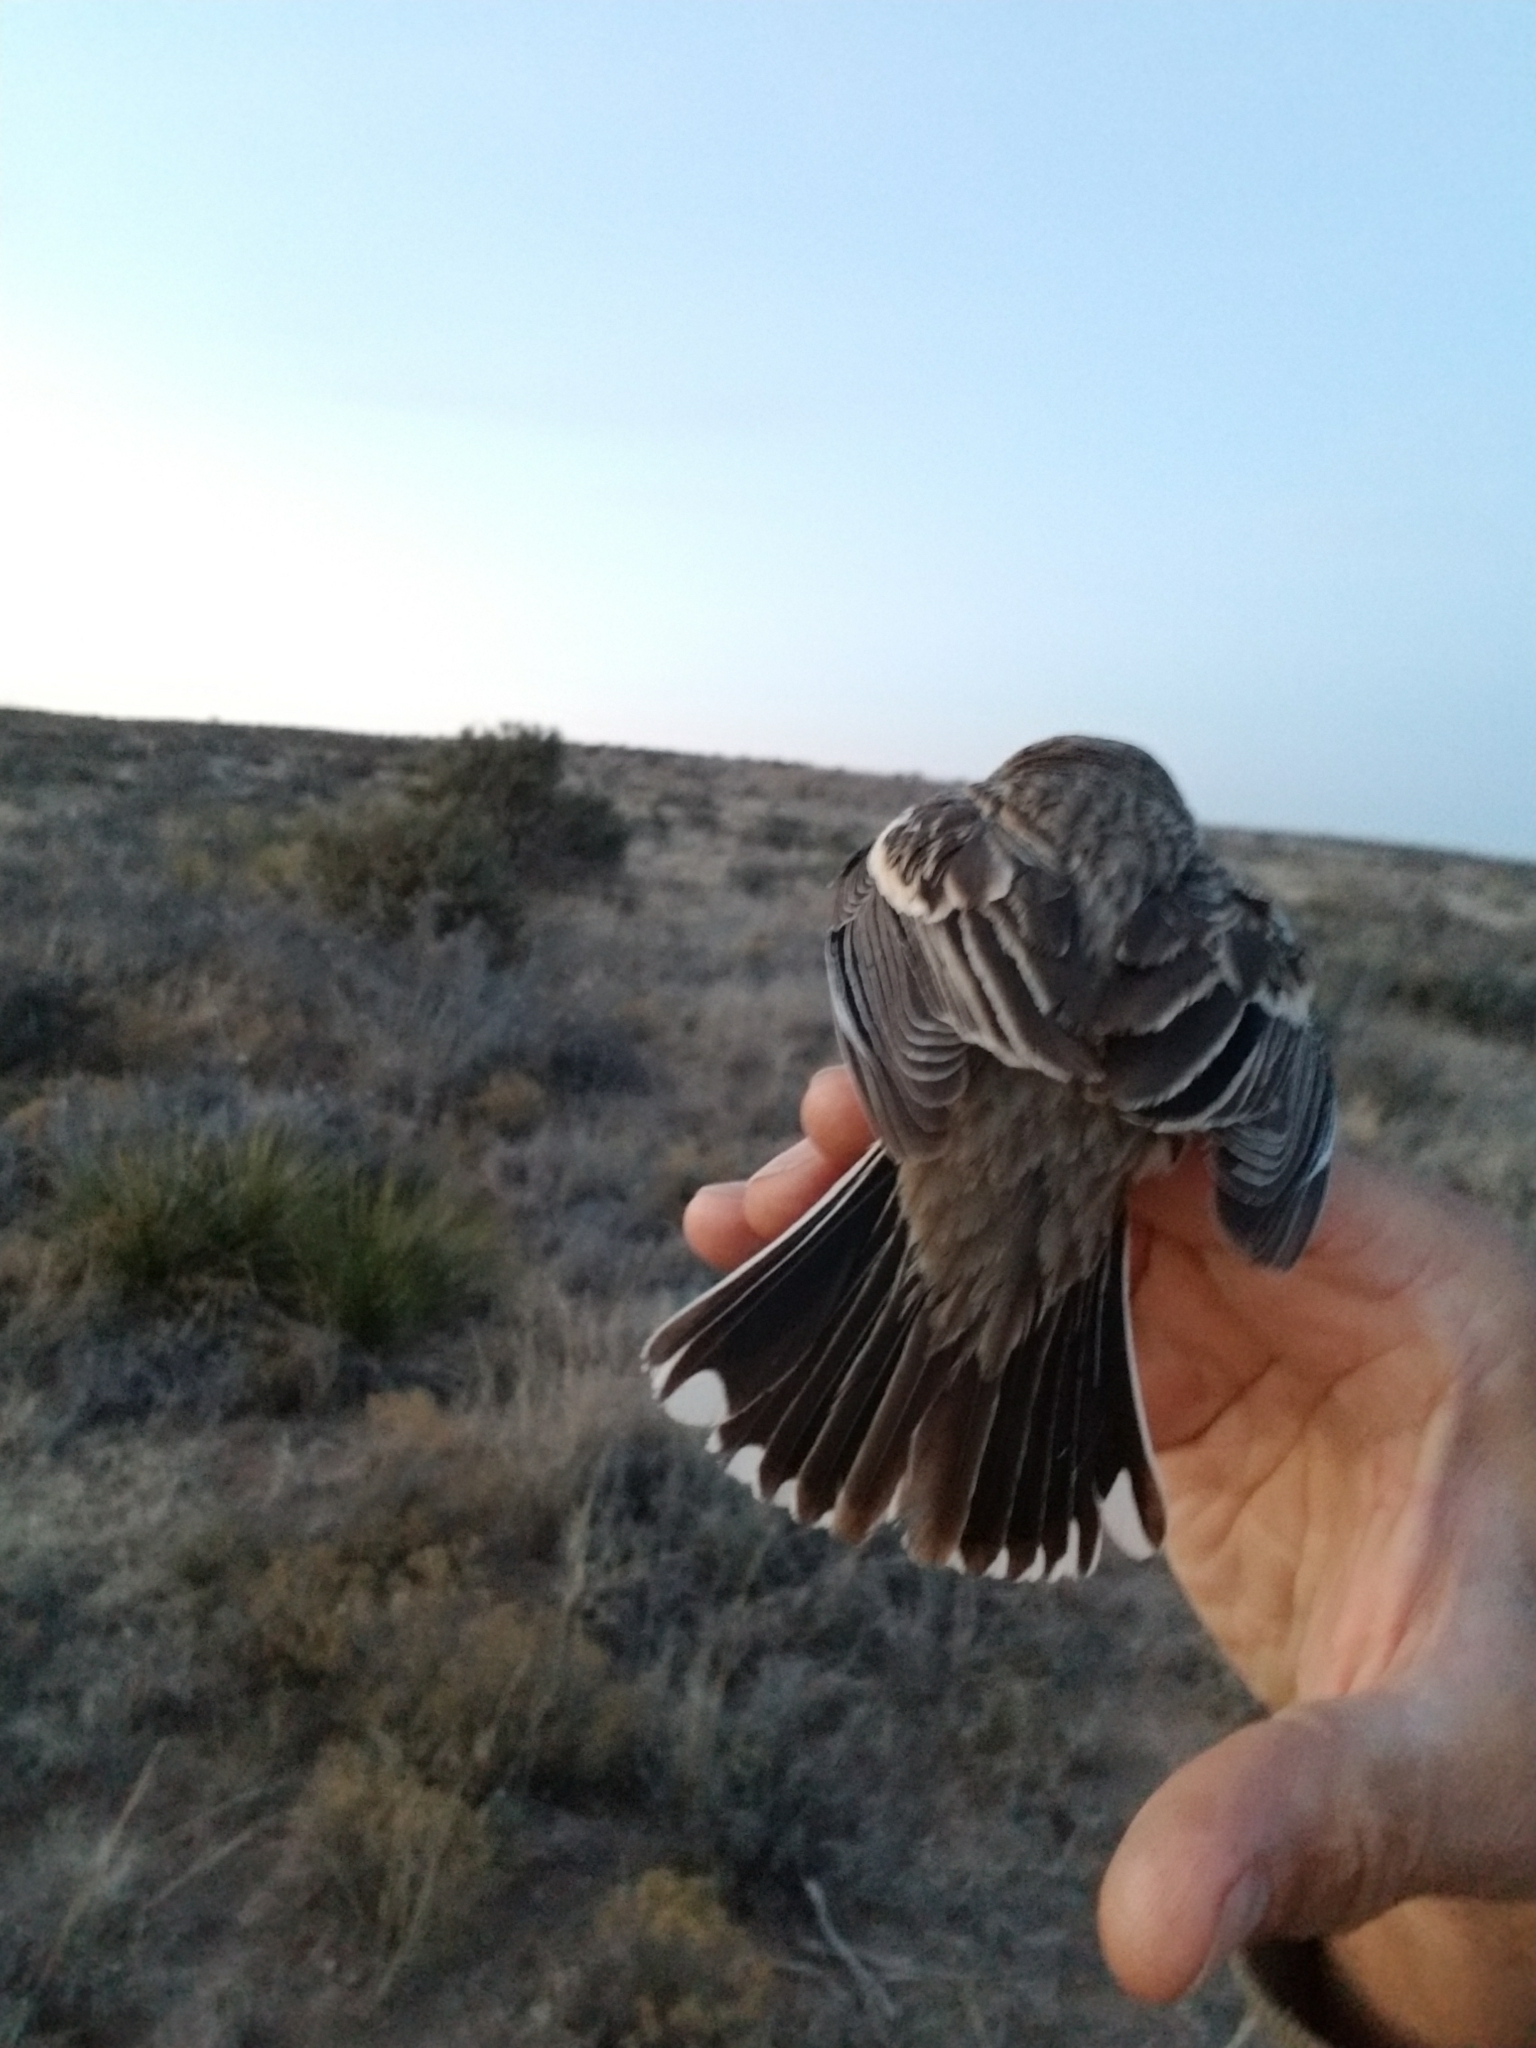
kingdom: Animalia
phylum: Chordata
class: Aves
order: Passeriformes
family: Passerellidae
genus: Calamospiza
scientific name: Calamospiza melanocorys
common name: Lark bunting
